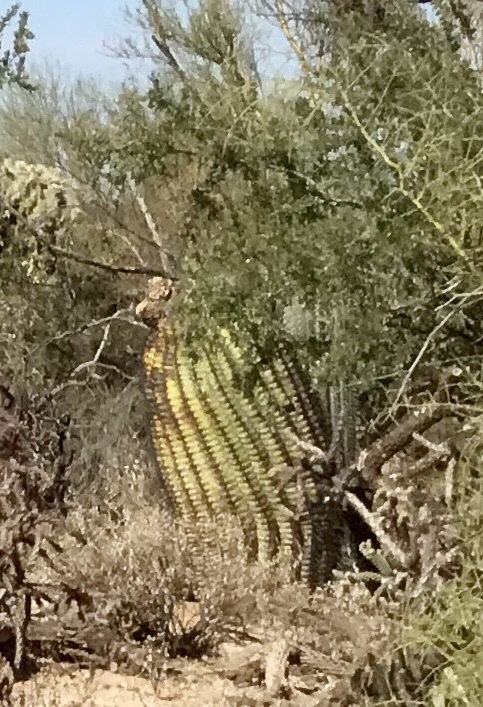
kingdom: Plantae
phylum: Tracheophyta
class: Magnoliopsida
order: Caryophyllales
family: Cactaceae
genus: Ferocactus
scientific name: Ferocactus wislizeni
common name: Candy barrel cactus
